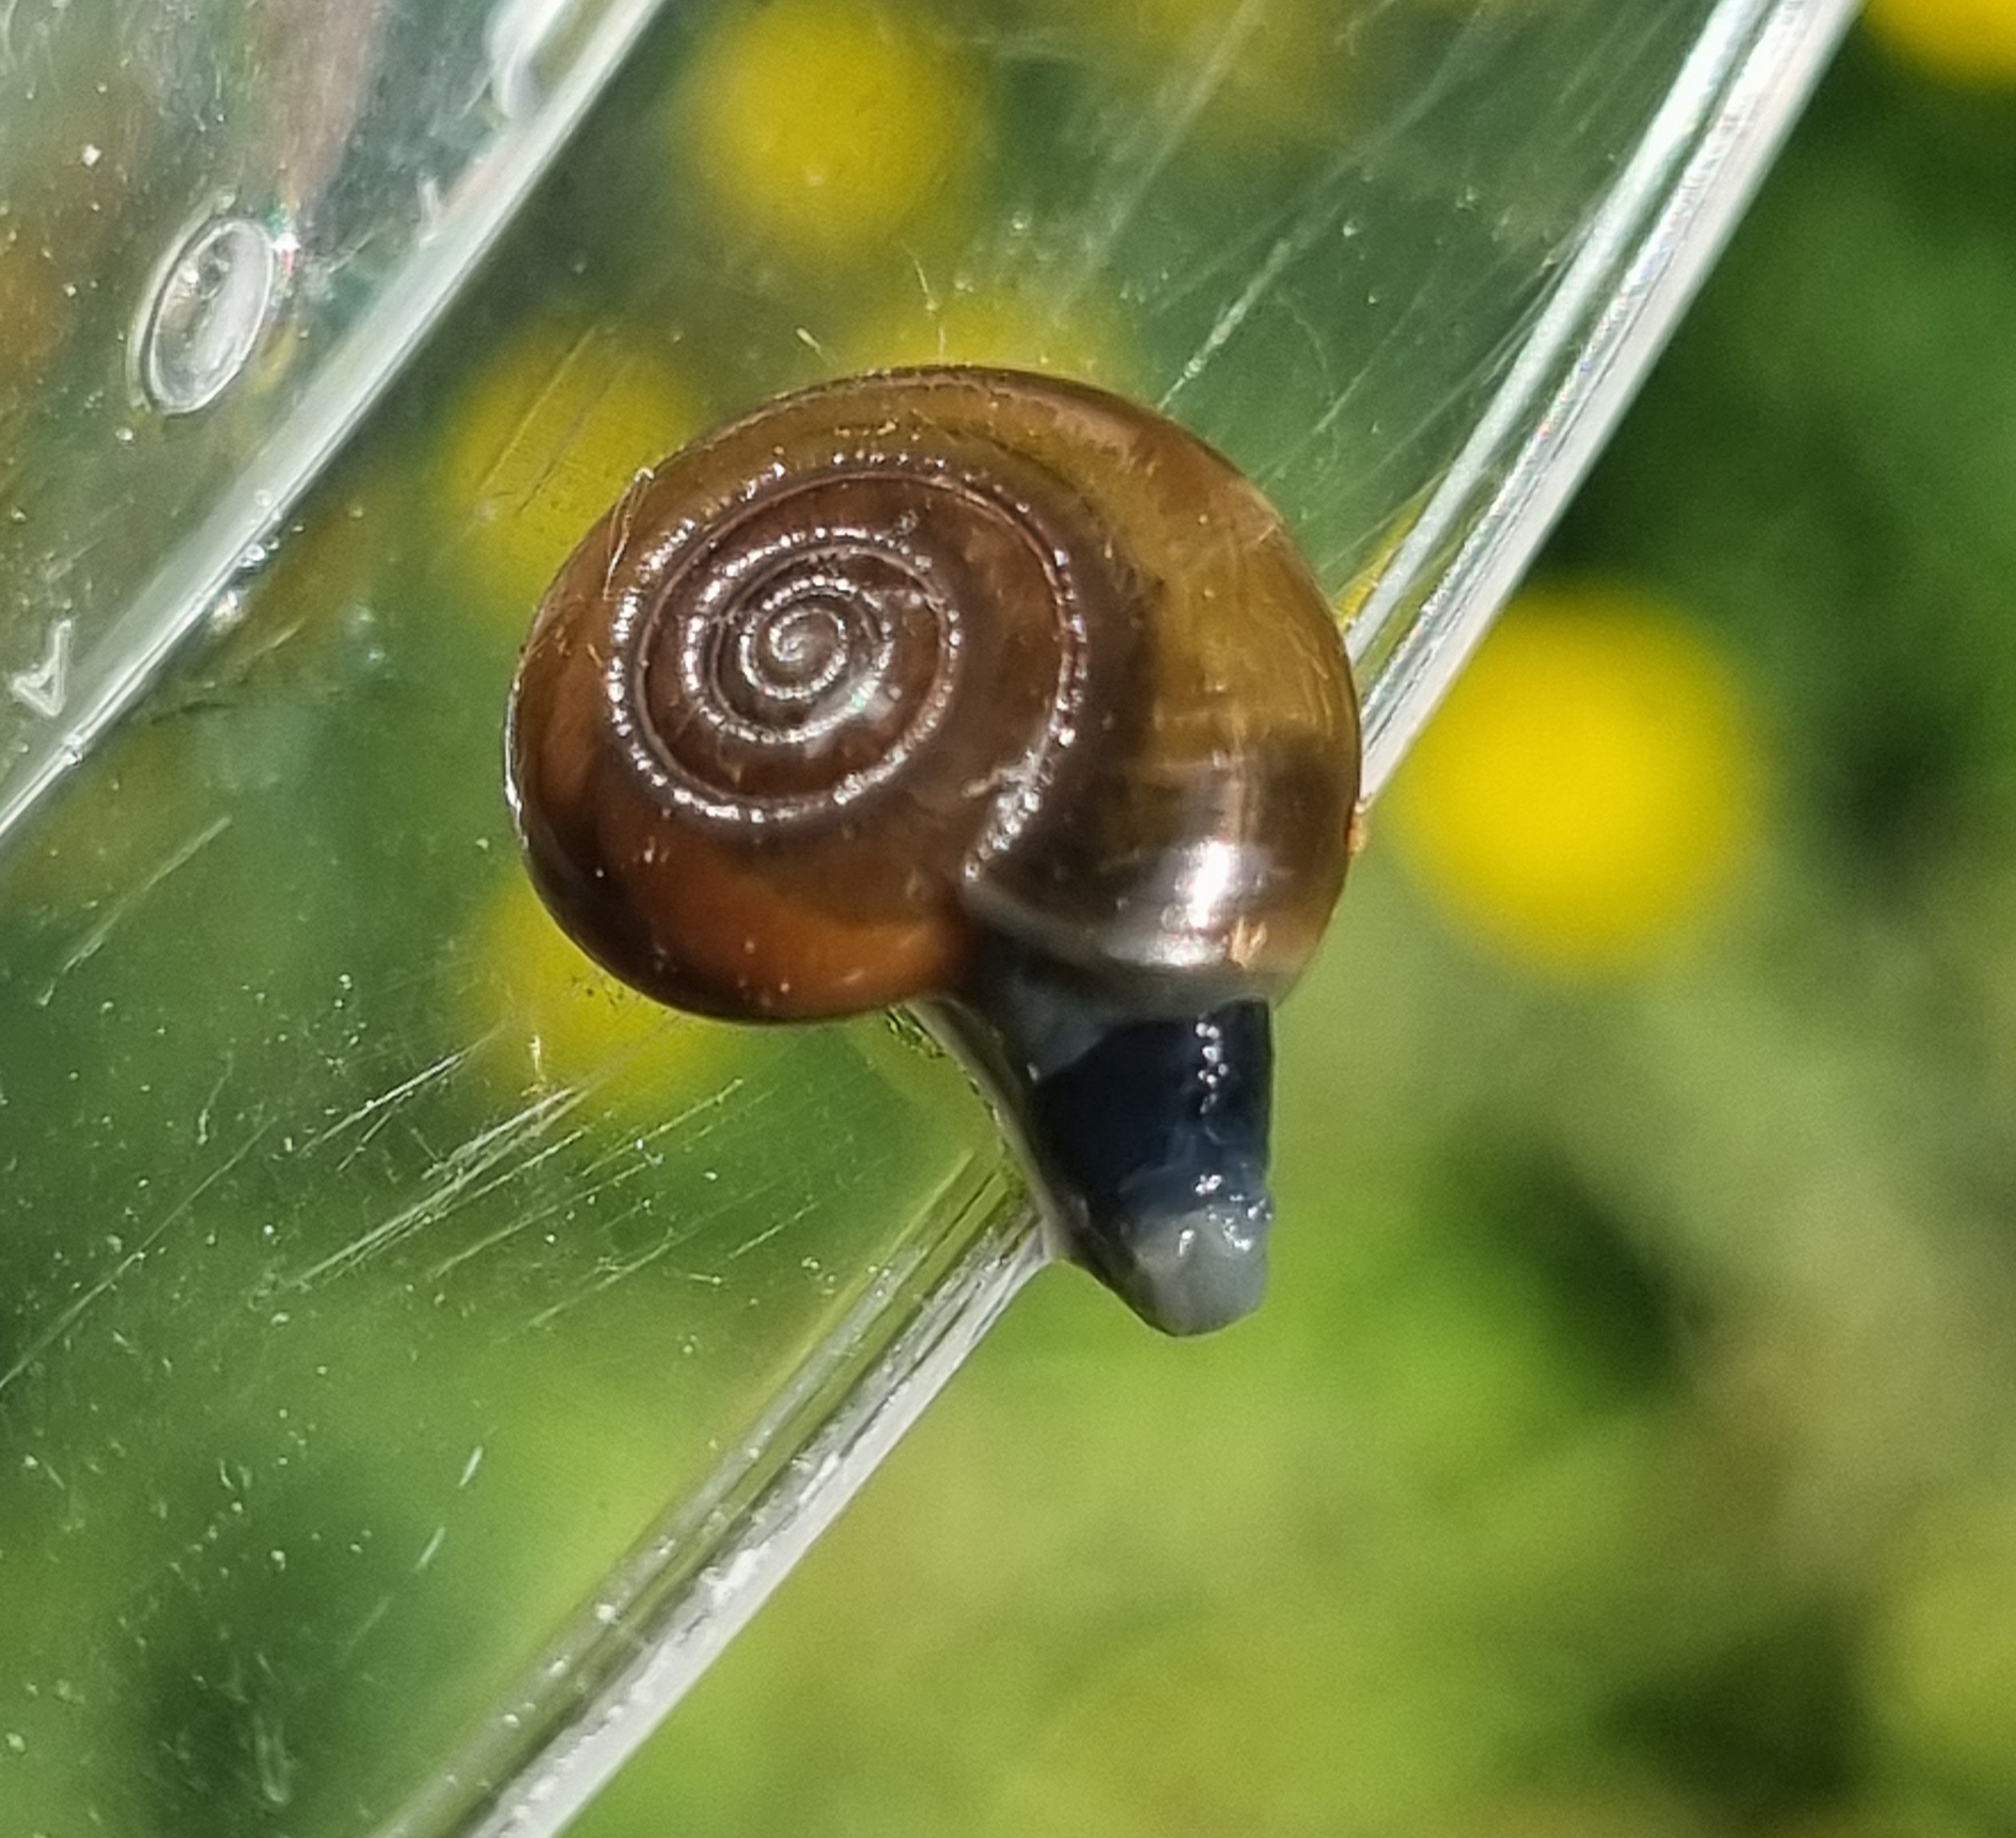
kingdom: Animalia
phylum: Mollusca
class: Gastropoda
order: Stylommatophora
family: Oxychilidae
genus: Oxychilus
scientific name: Oxychilus draparnaudi
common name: Draparnaud's glass snail
